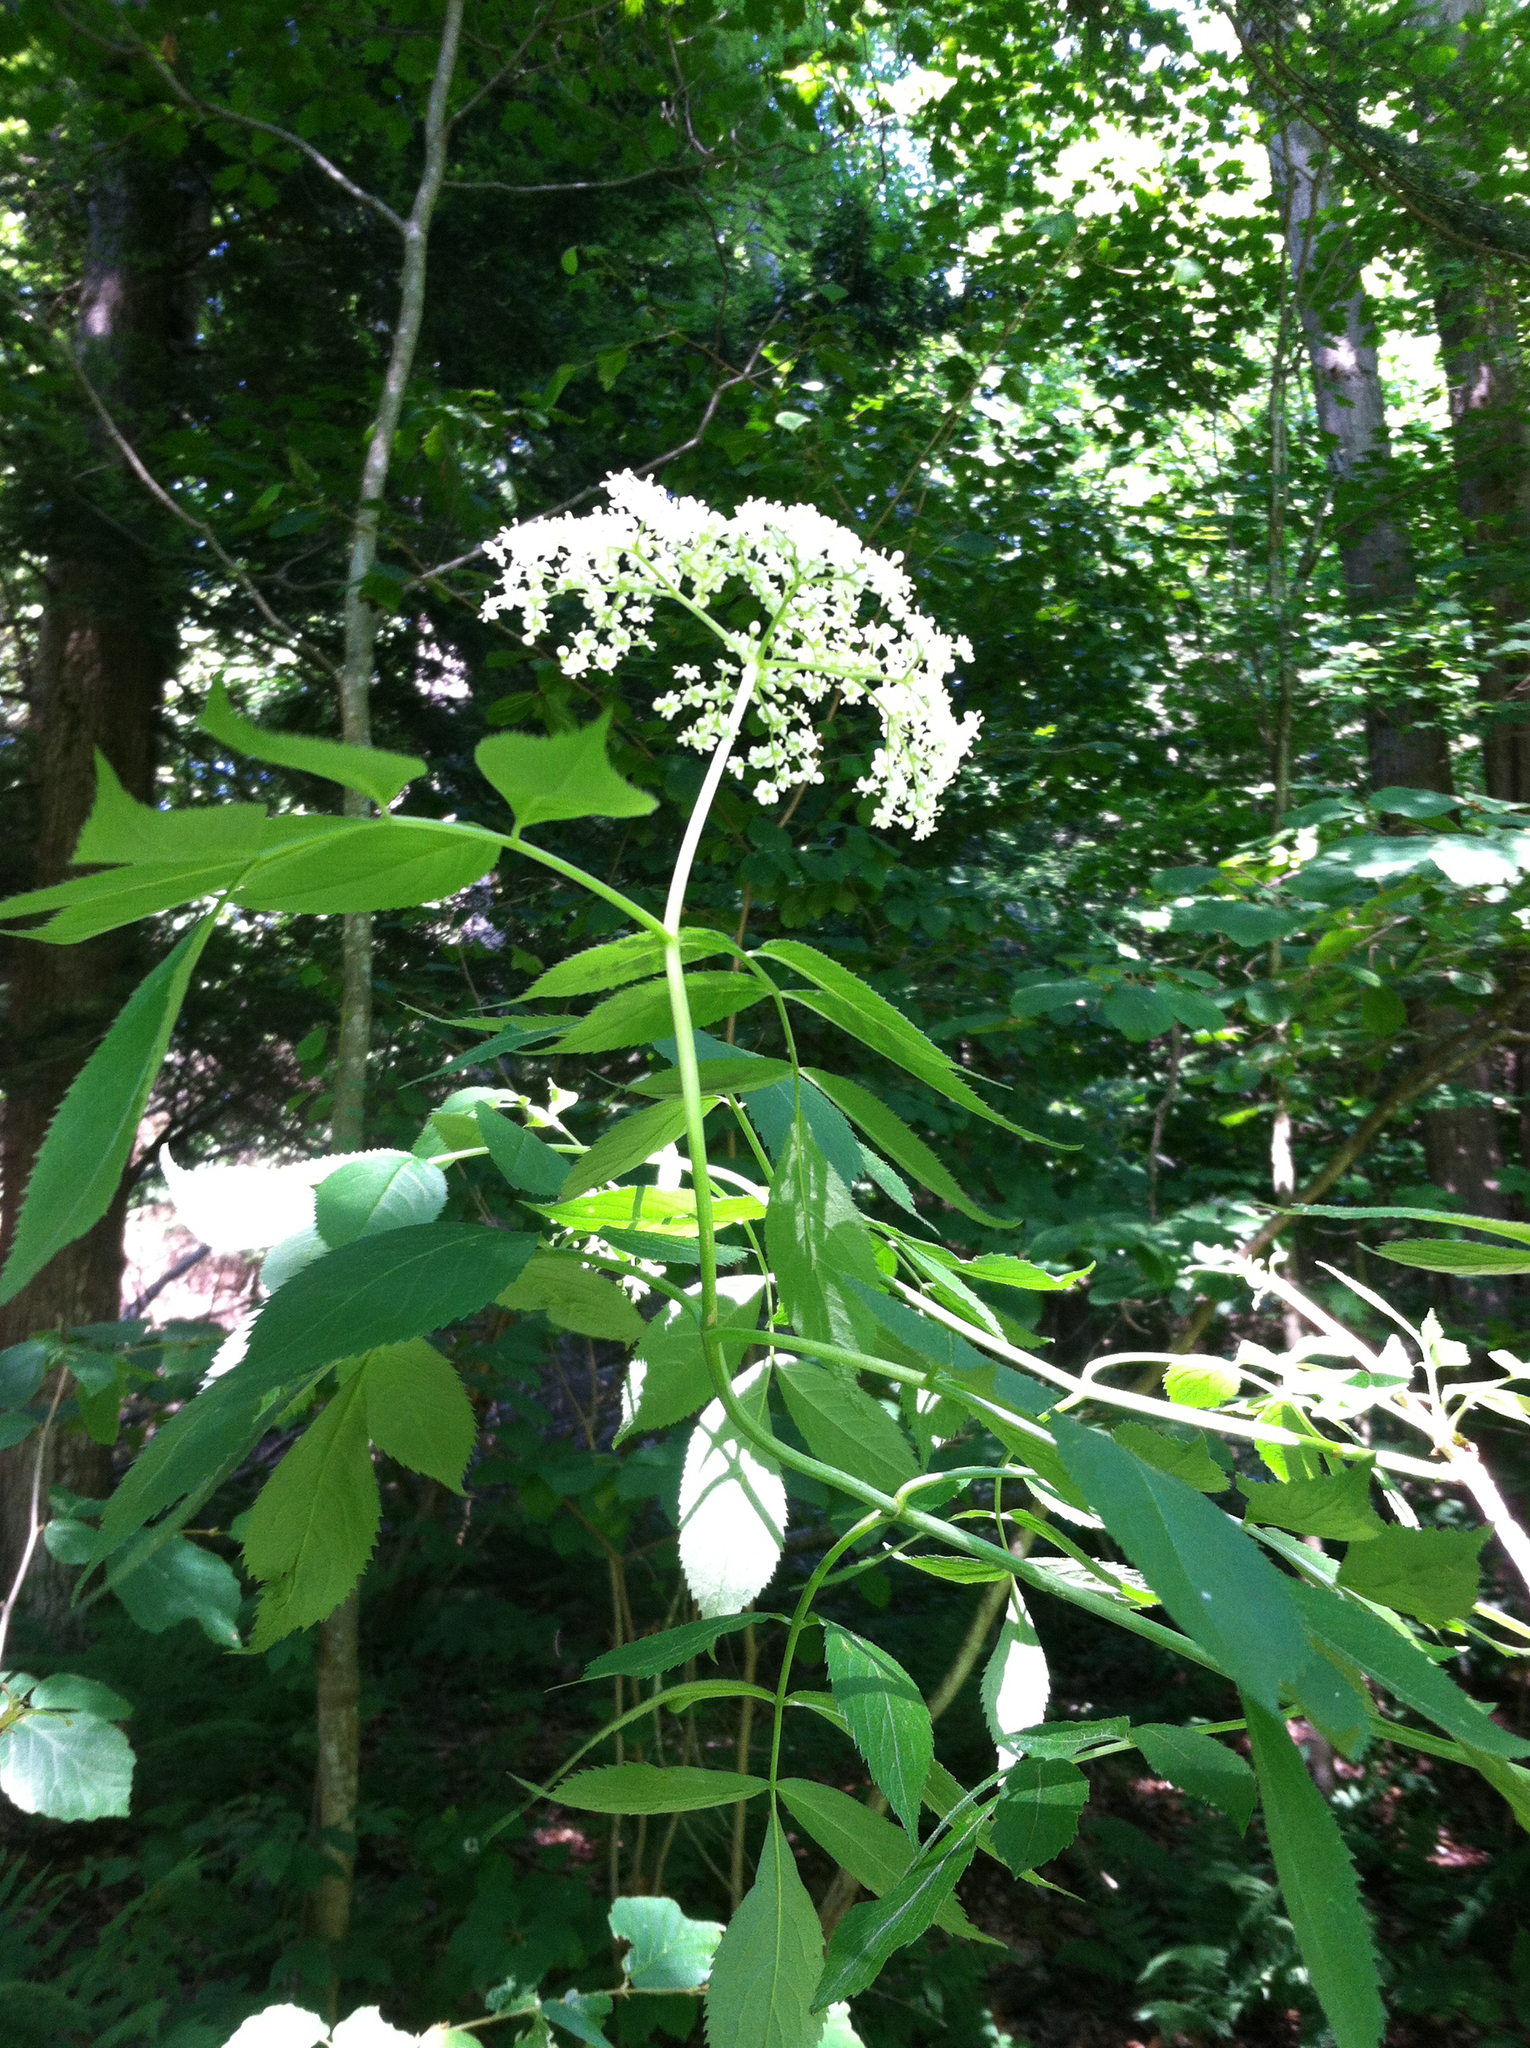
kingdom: Plantae
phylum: Tracheophyta
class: Magnoliopsida
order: Dipsacales
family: Viburnaceae
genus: Sambucus
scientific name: Sambucus canadensis
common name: American elder
